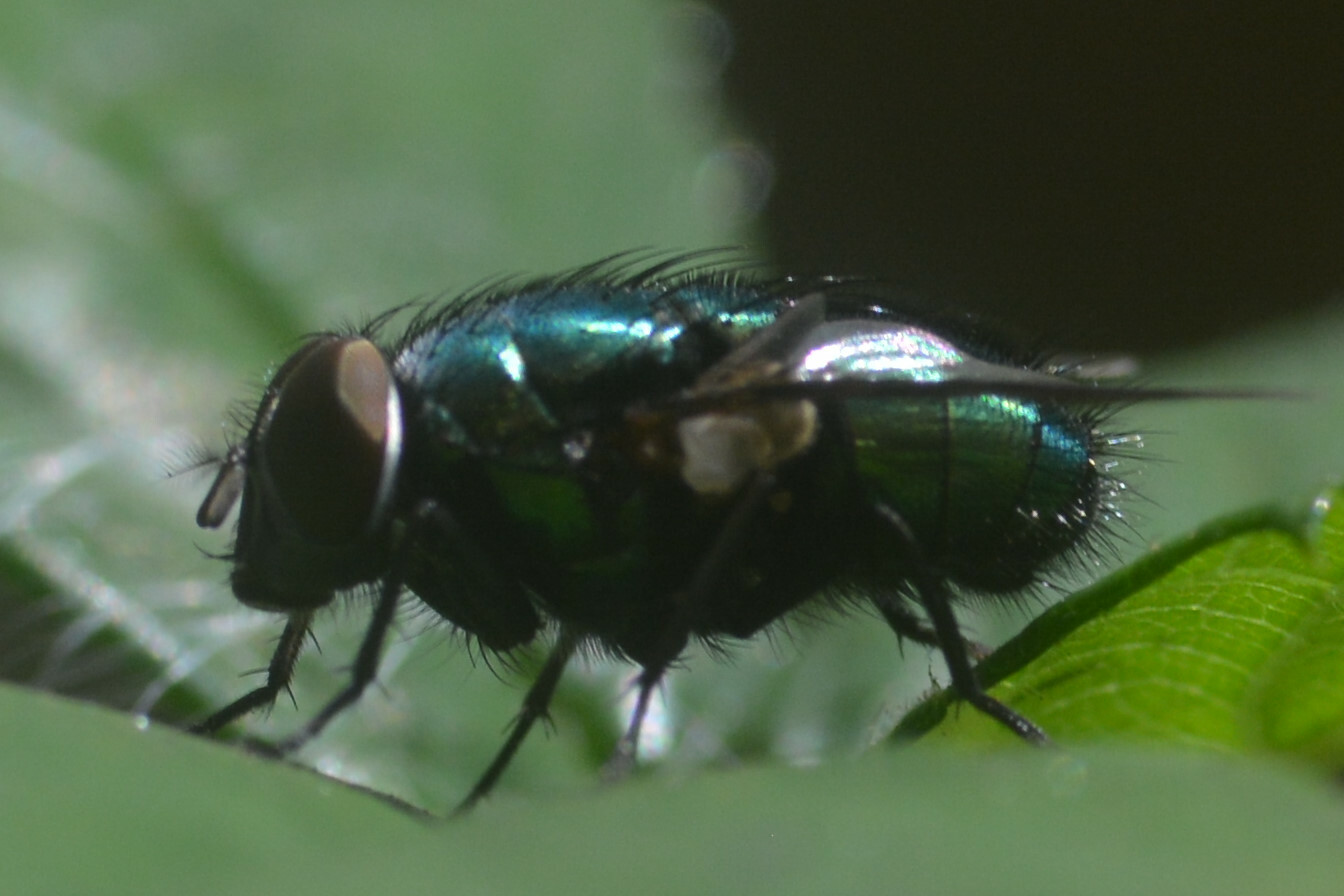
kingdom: Animalia
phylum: Arthropoda
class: Insecta
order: Diptera
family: Calliphoridae
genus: Lucilia
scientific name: Lucilia caesar
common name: Blow fly
